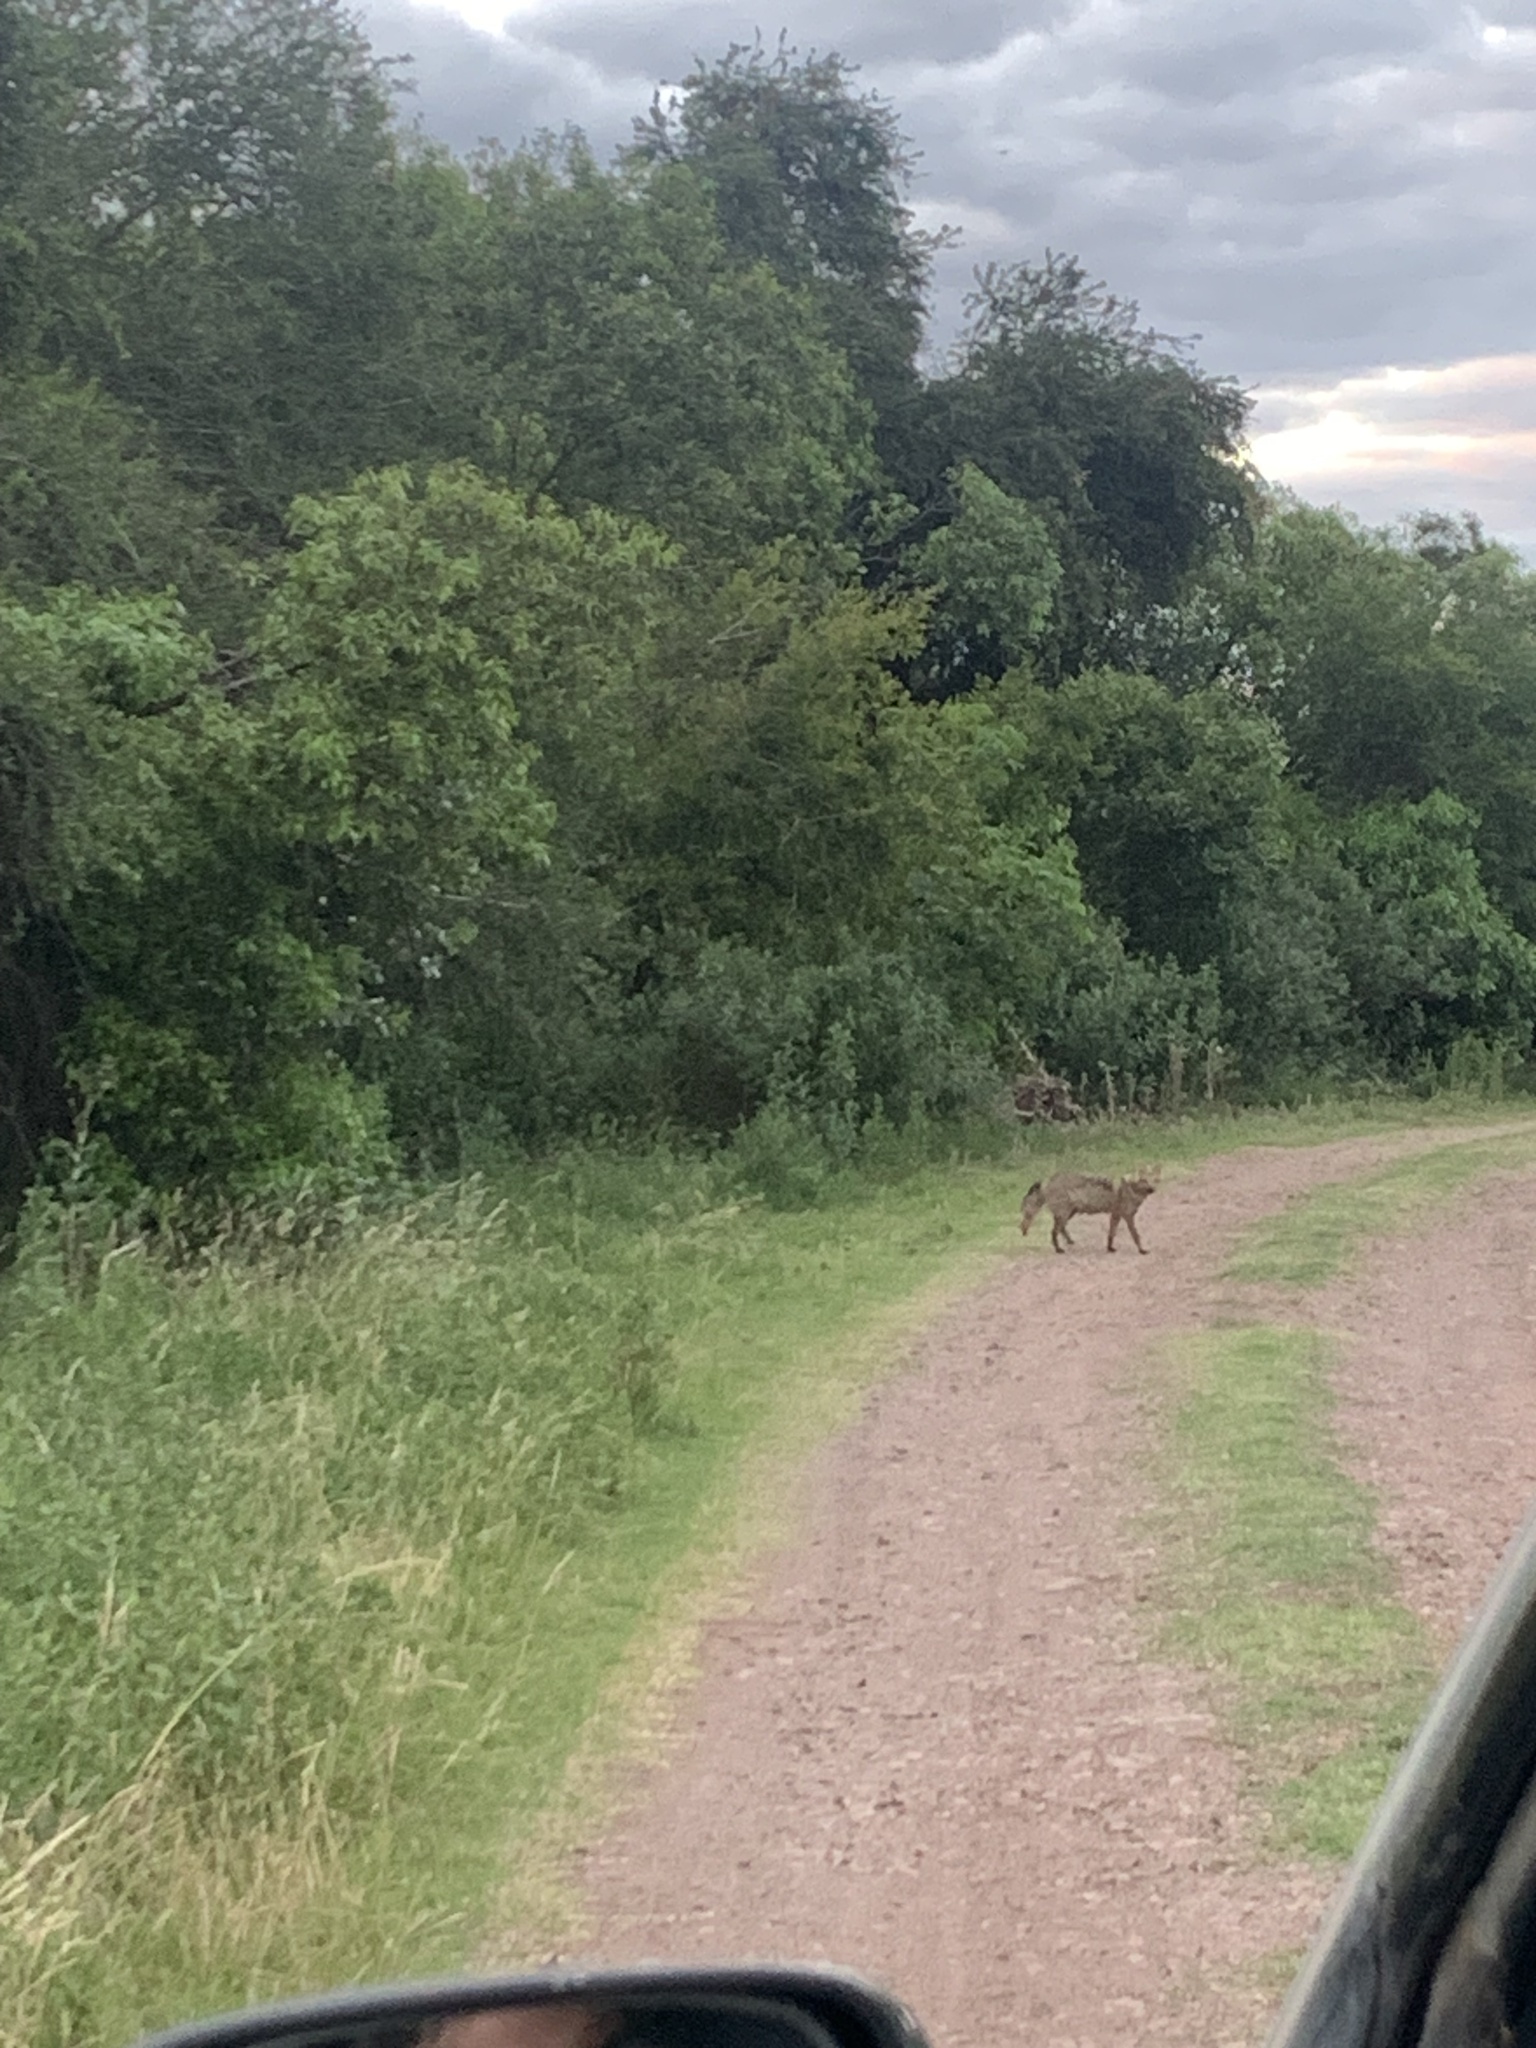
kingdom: Animalia
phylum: Chordata
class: Mammalia
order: Carnivora
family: Canidae
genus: Cerdocyon
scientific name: Cerdocyon thous
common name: Crab-eating fox
